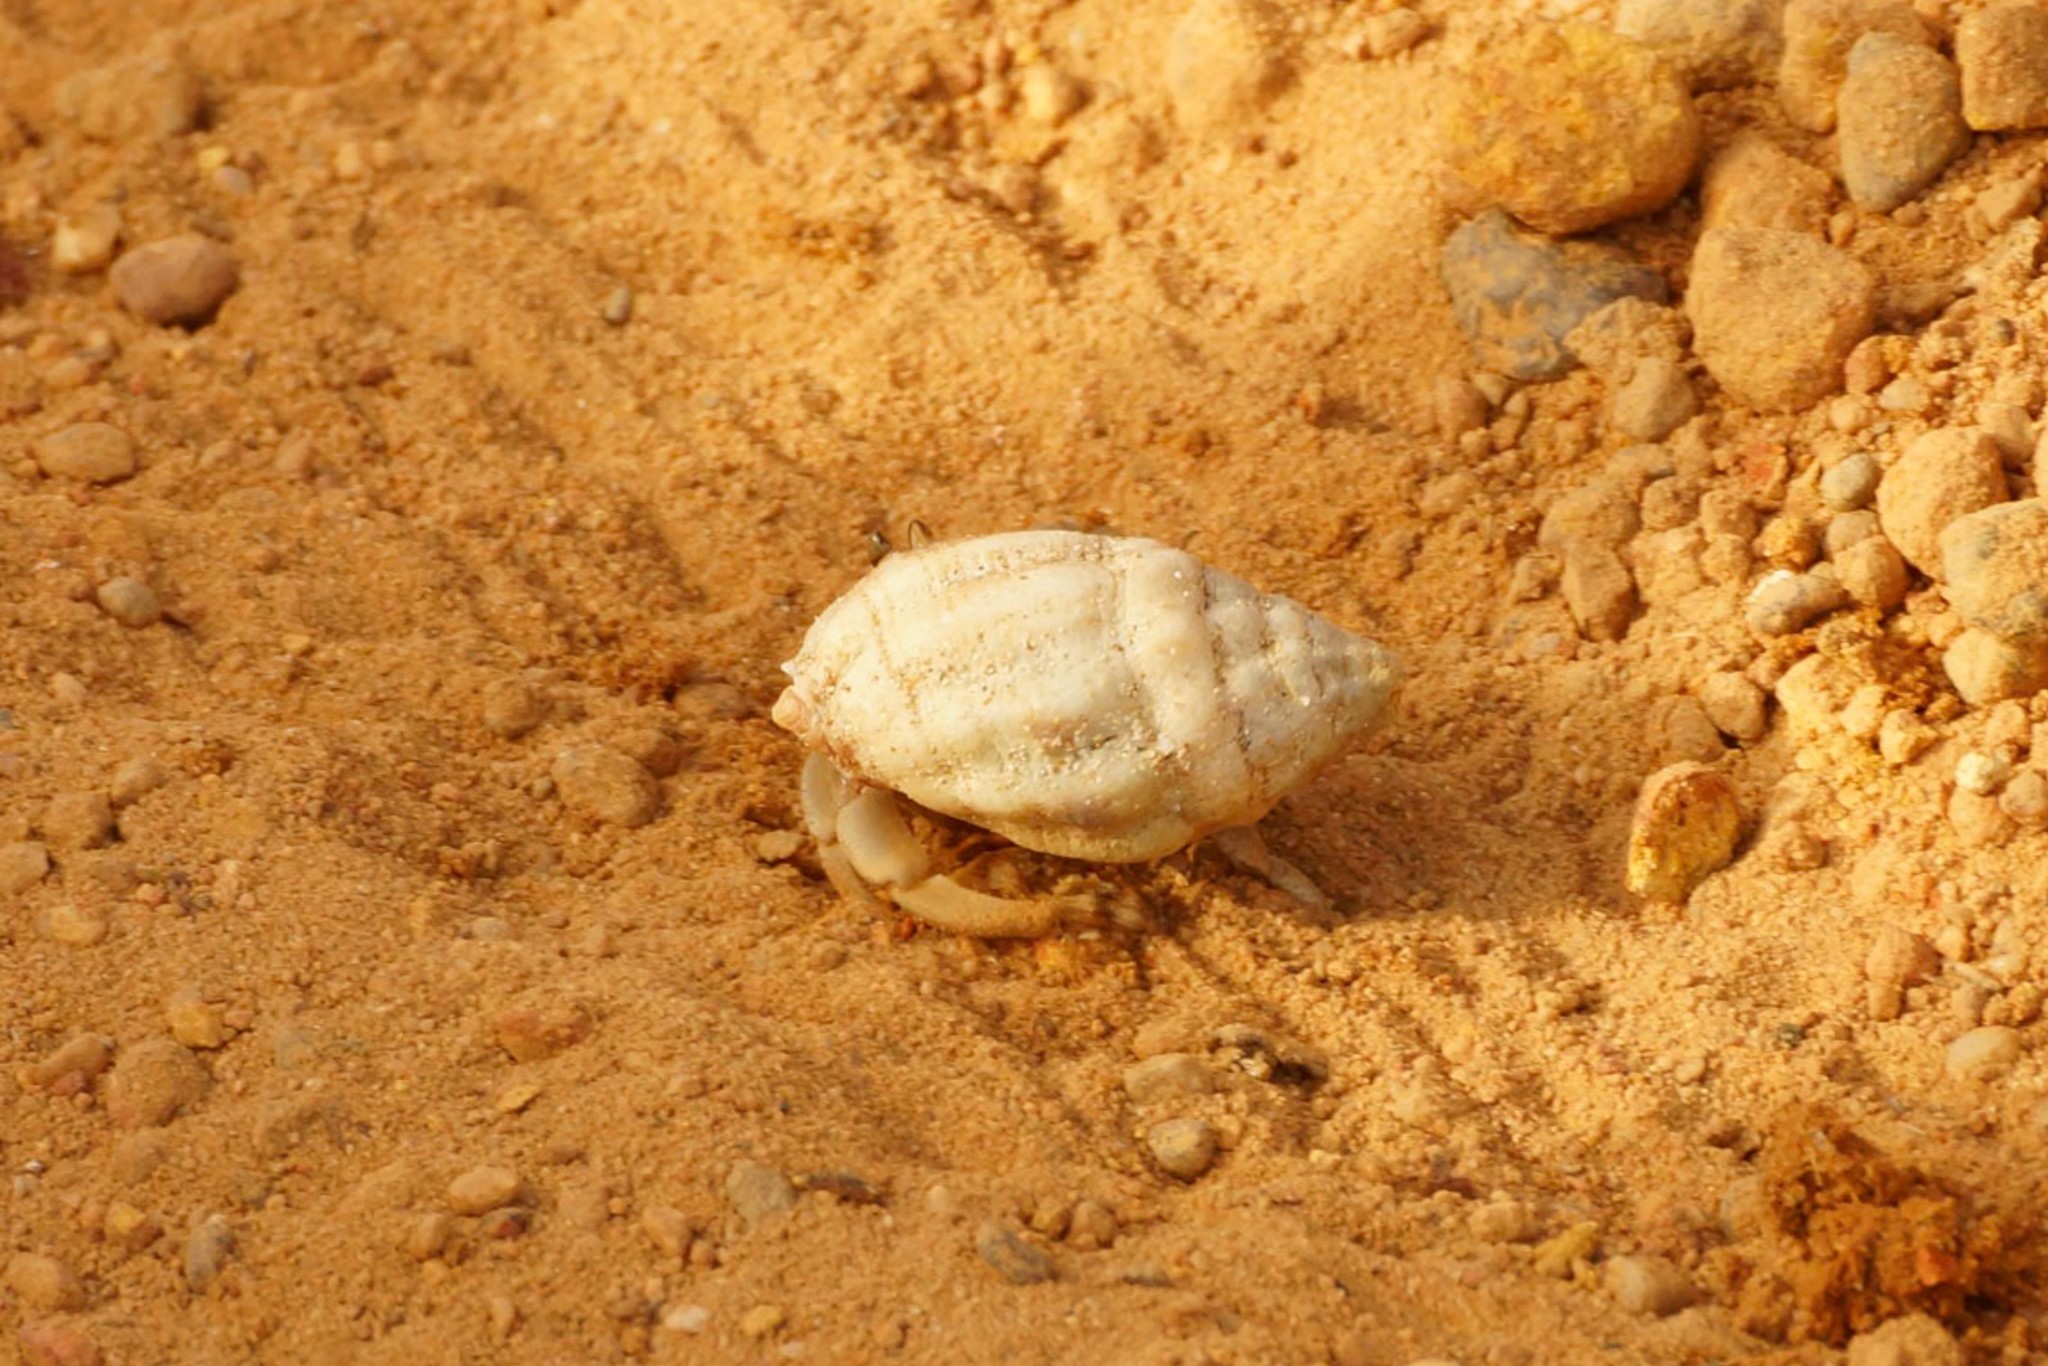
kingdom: Animalia
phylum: Arthropoda
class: Malacostraca
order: Decapoda
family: Coenobitidae
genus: Coenobita
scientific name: Coenobita variabilis
